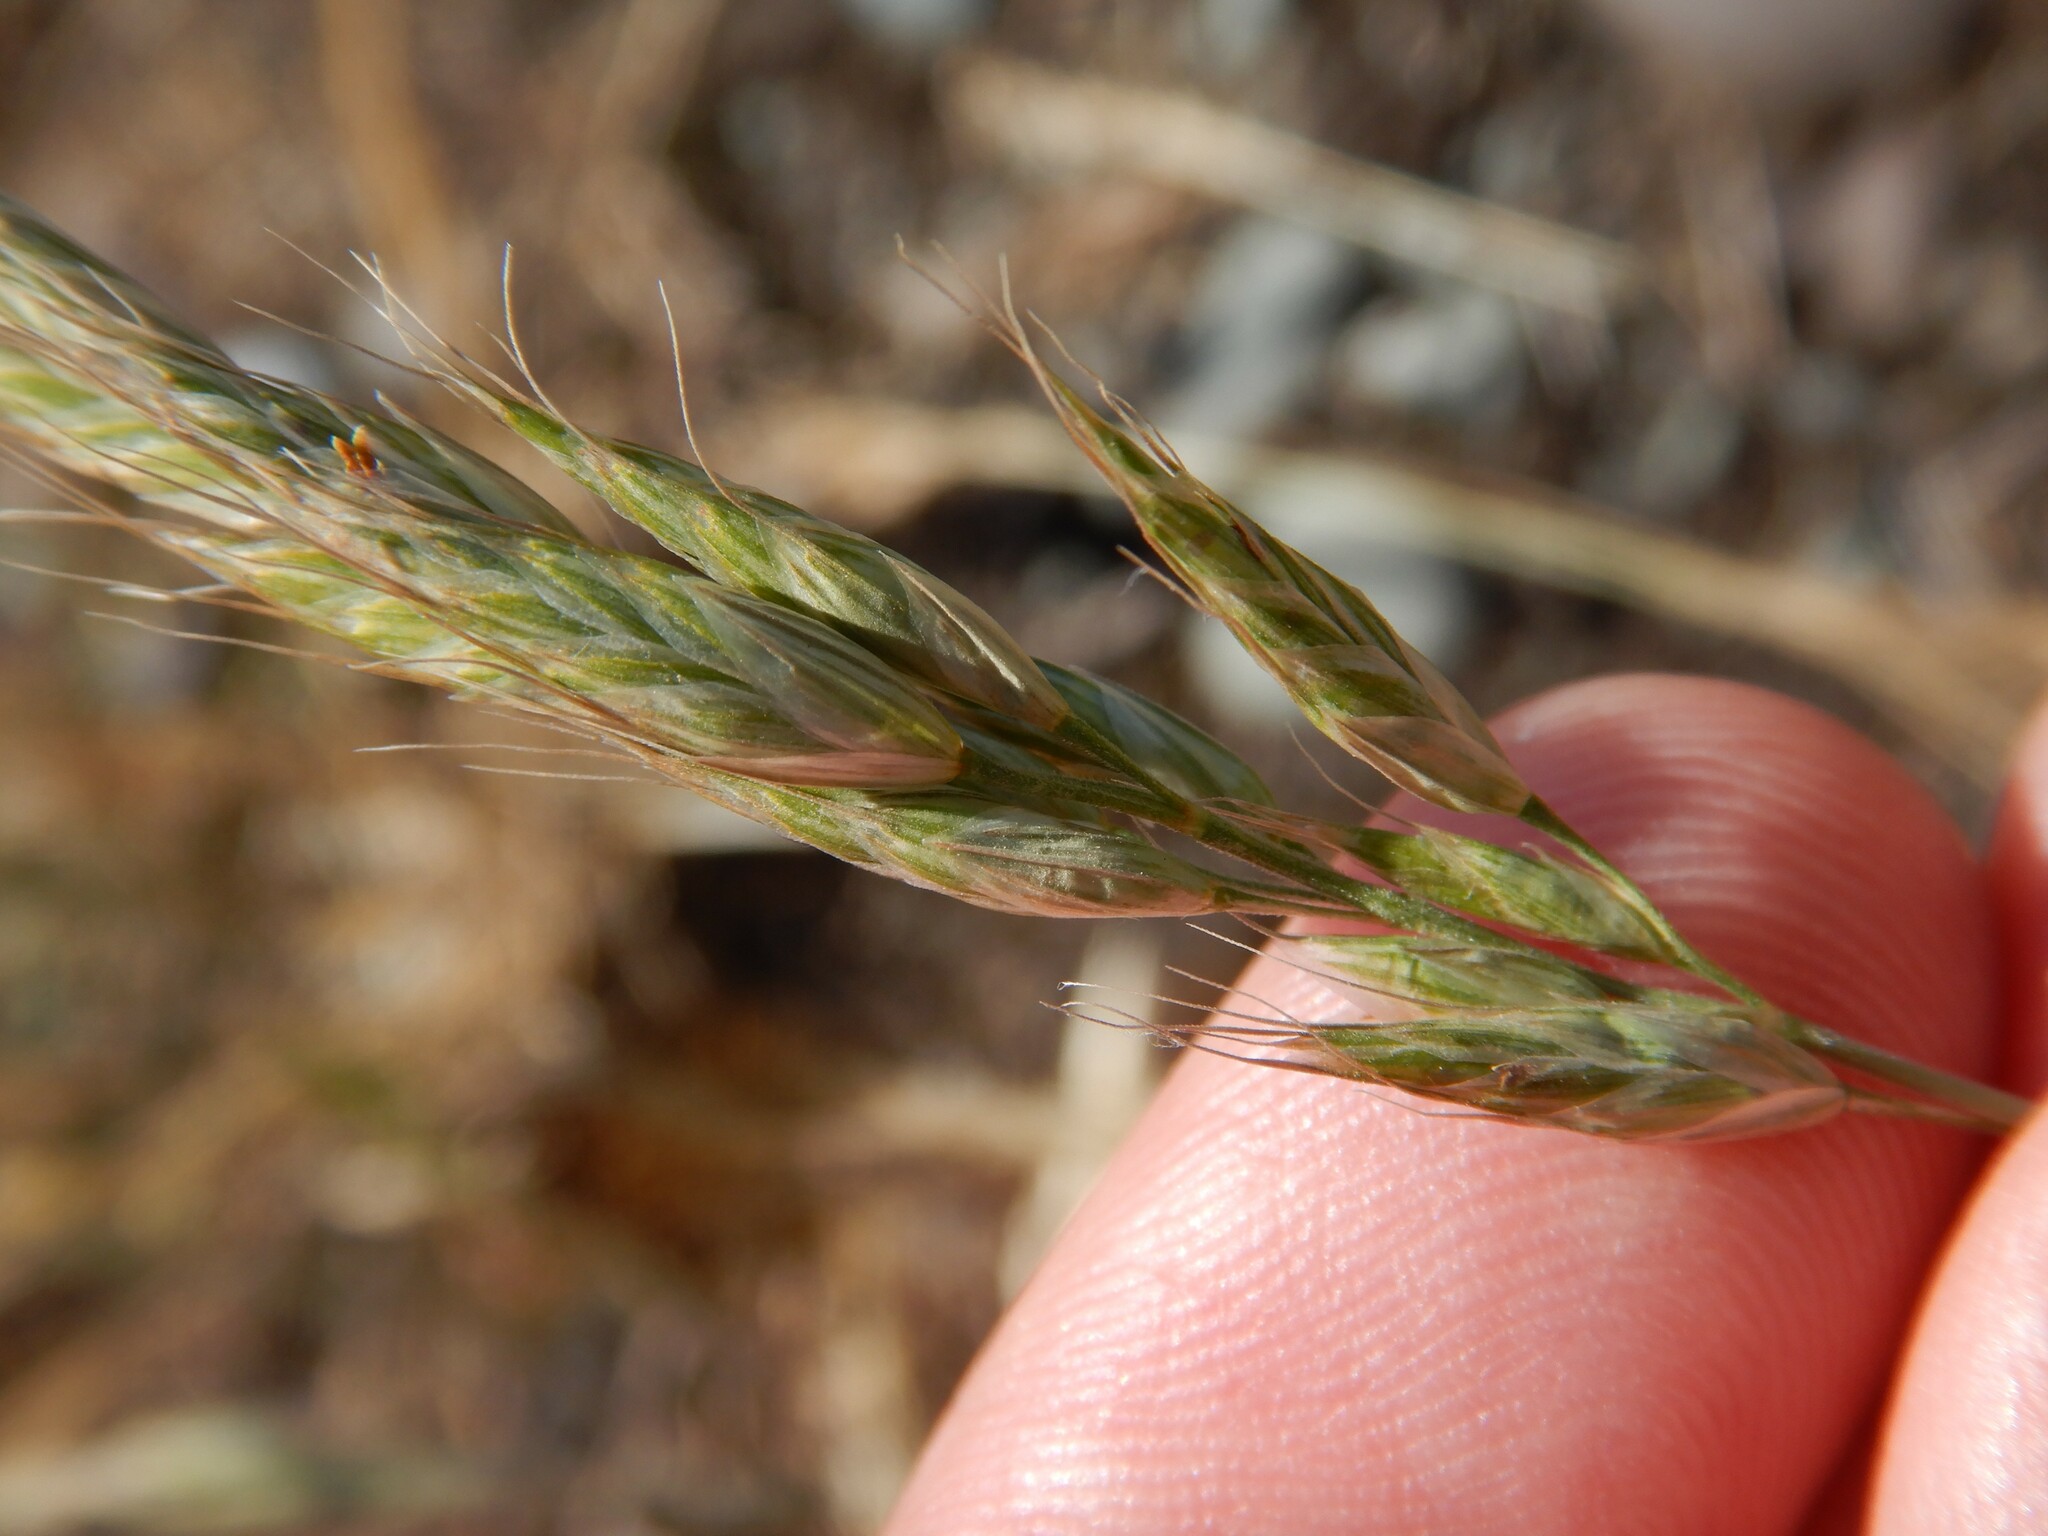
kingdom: Plantae
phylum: Tracheophyta
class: Liliopsida
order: Poales
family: Poaceae
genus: Bromus
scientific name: Bromus hordeaceus
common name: Soft brome
